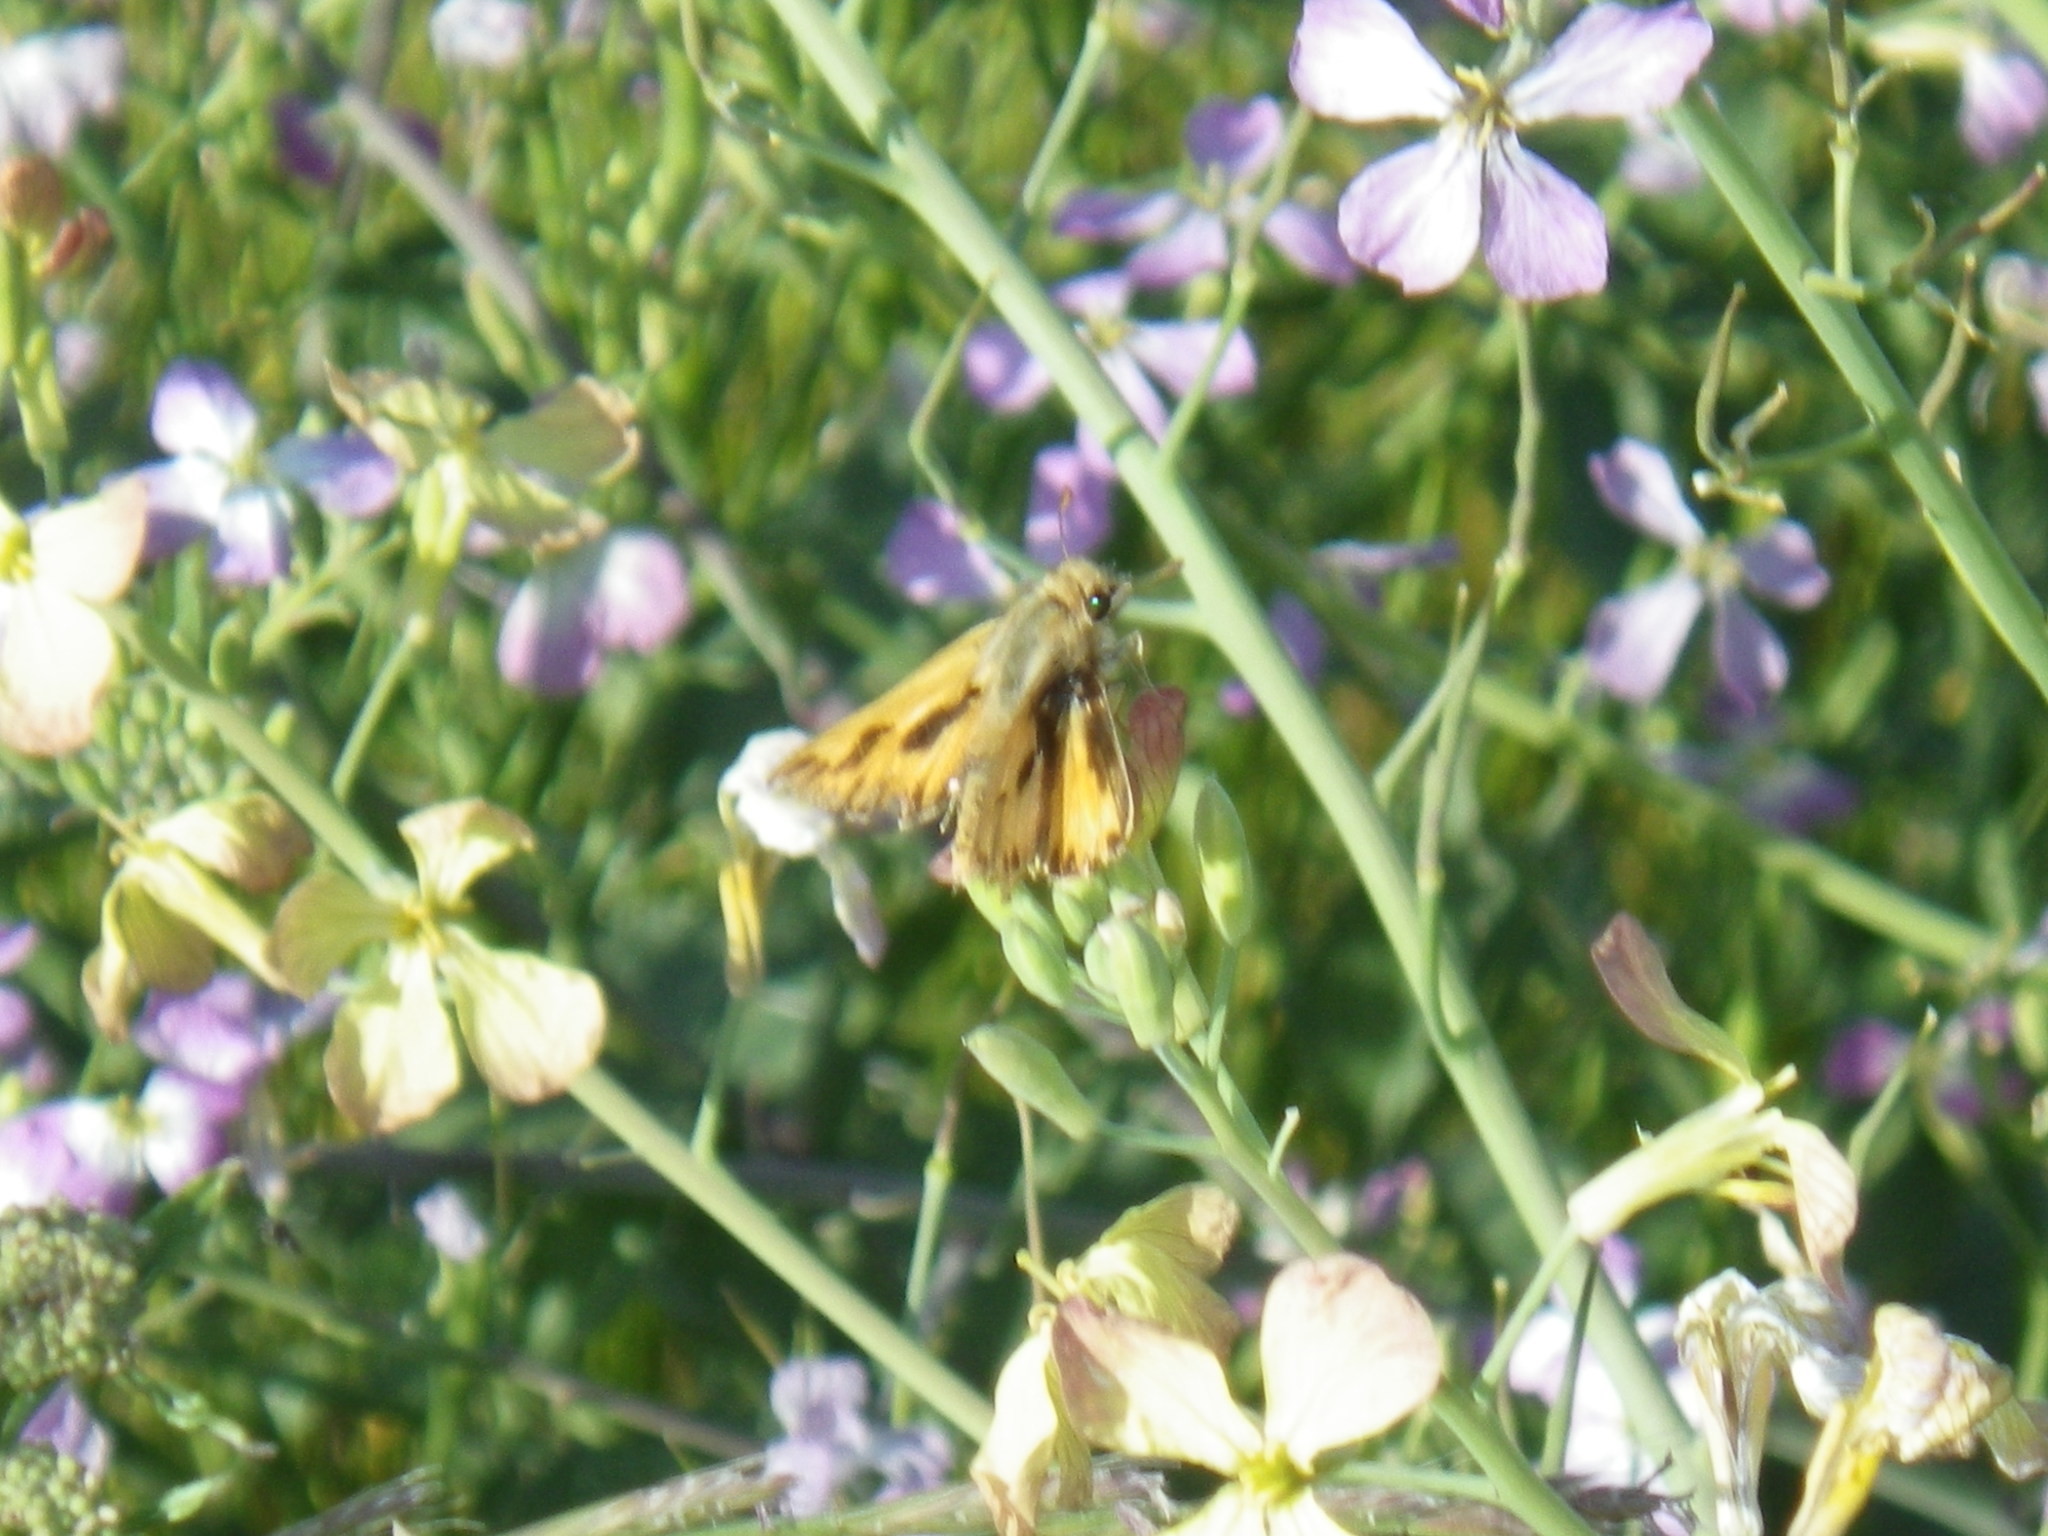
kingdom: Animalia
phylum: Arthropoda
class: Insecta
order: Lepidoptera
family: Hesperiidae
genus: Hylephila
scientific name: Hylephila phyleus
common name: Fiery skipper
